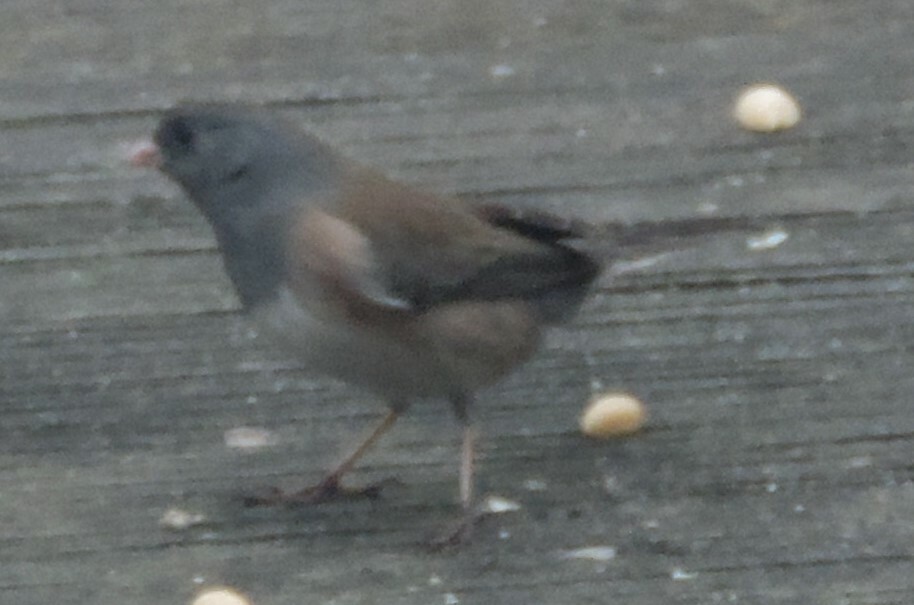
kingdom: Animalia
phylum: Chordata
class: Aves
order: Passeriformes
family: Passerellidae
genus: Junco
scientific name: Junco hyemalis
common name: Dark-eyed junco
